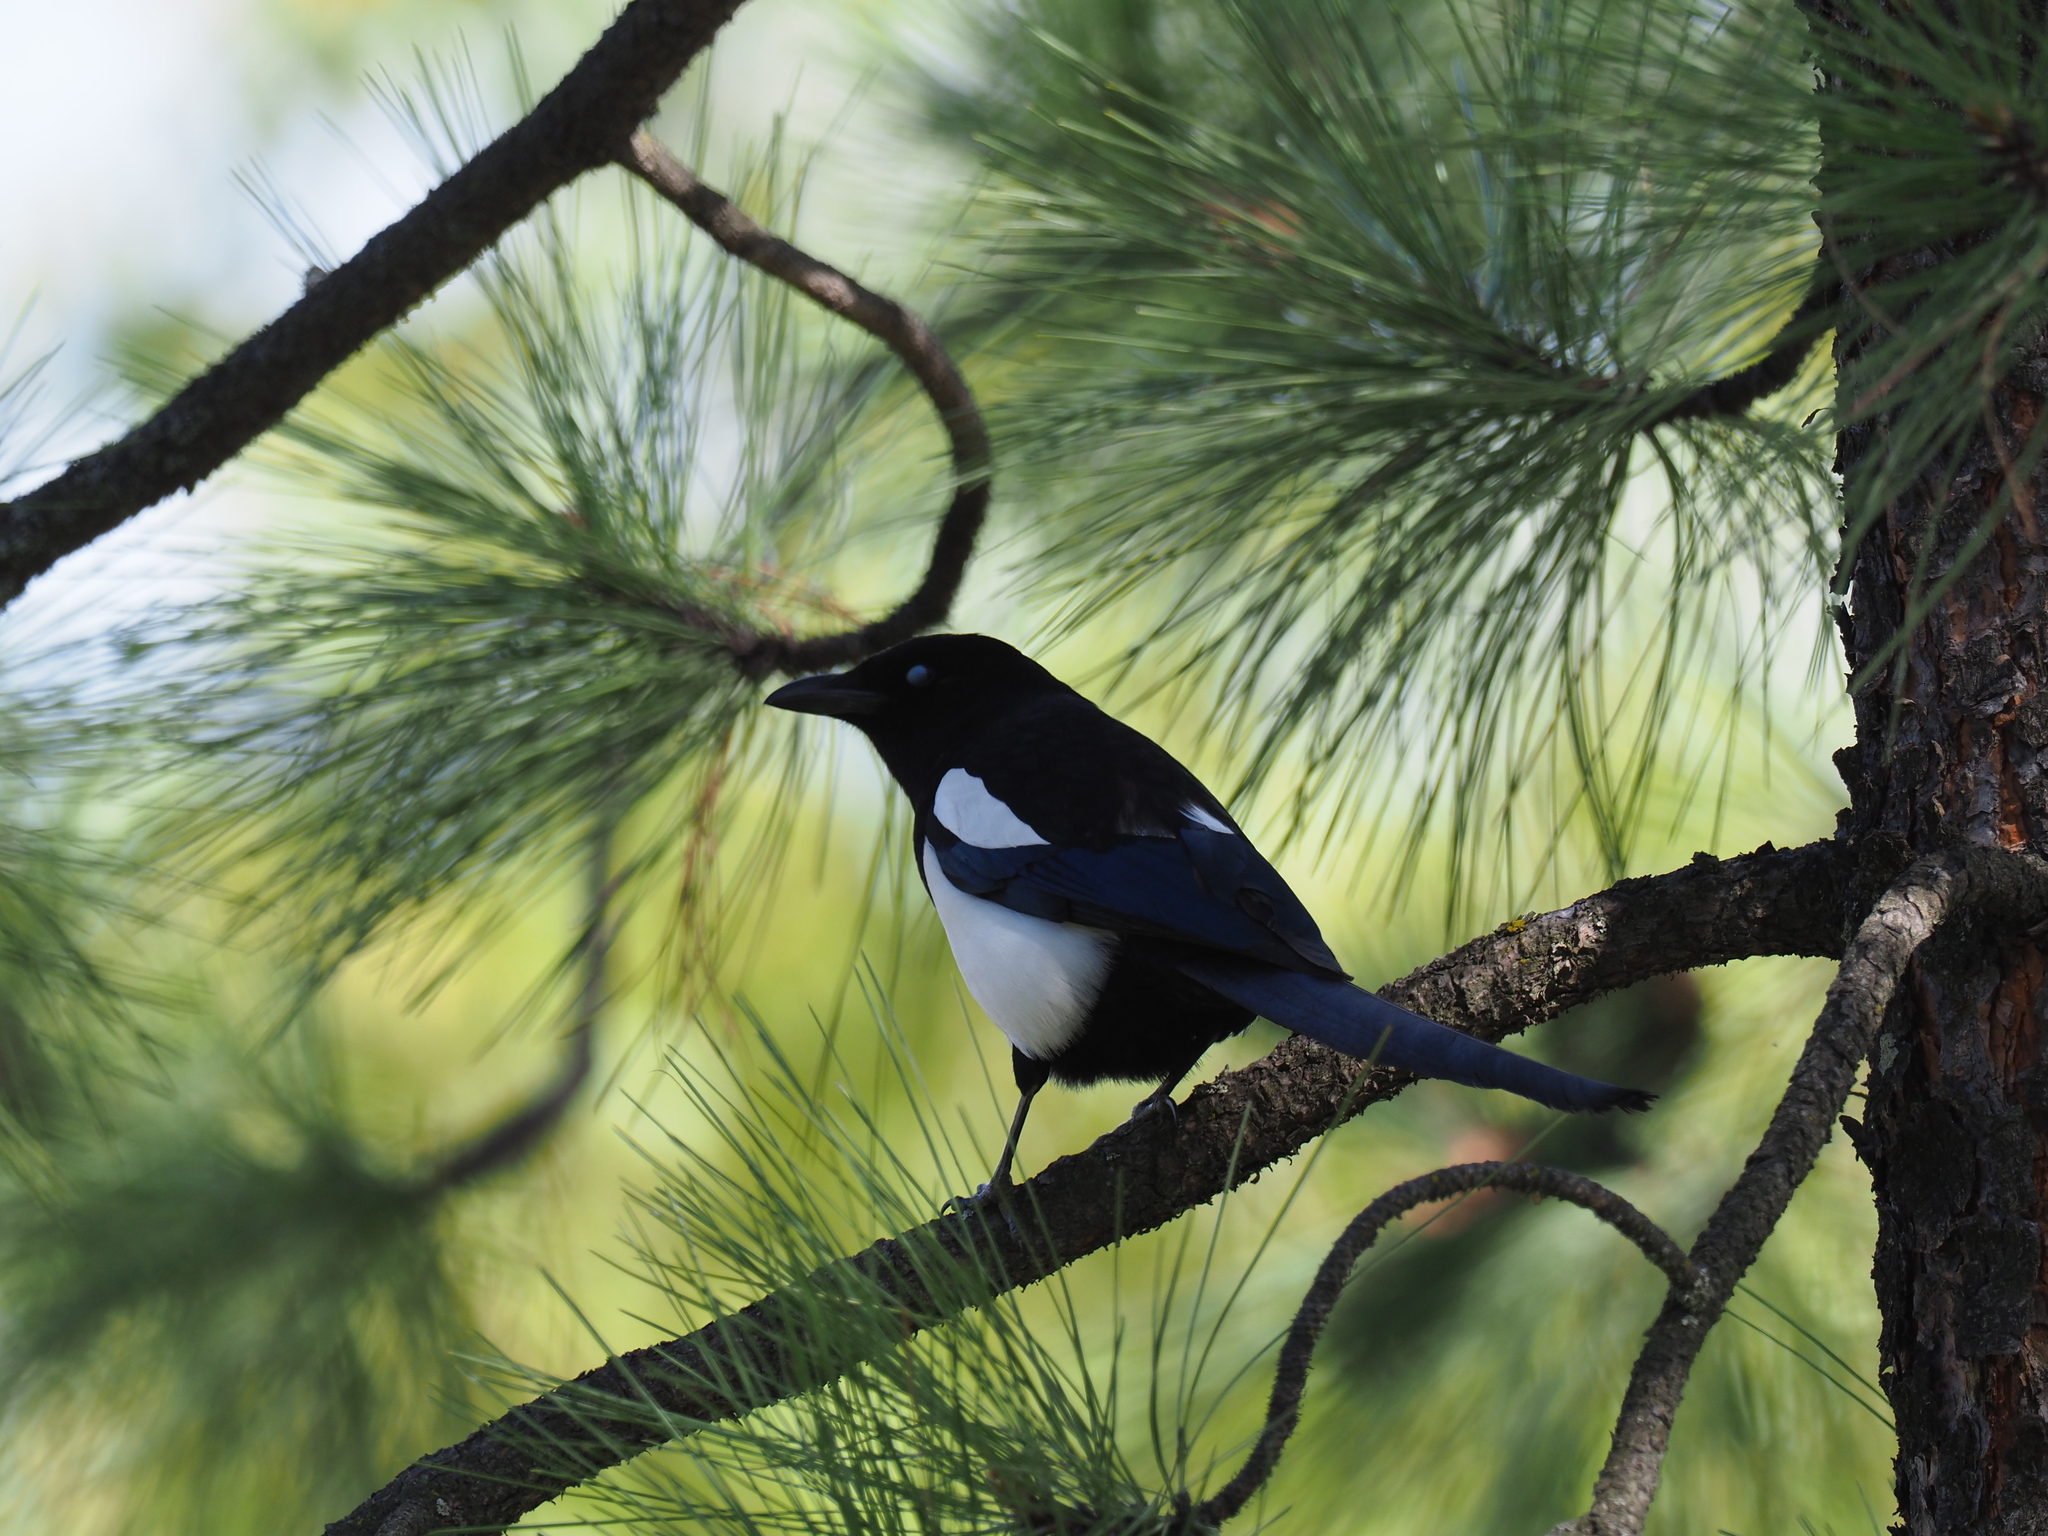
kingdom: Animalia
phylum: Chordata
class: Aves
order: Passeriformes
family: Corvidae
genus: Pica
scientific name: Pica hudsonia
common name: Black-billed magpie
